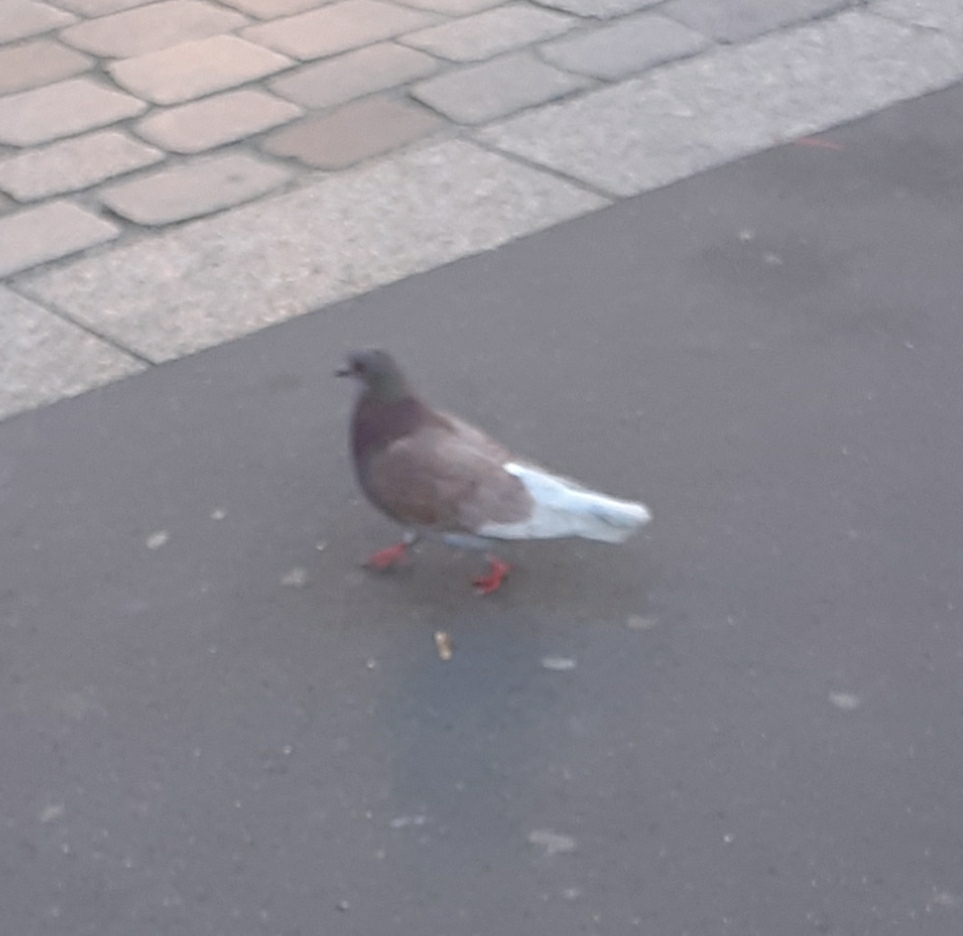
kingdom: Animalia
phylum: Chordata
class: Aves
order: Columbiformes
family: Columbidae
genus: Columba
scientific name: Columba livia
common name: Rock pigeon
